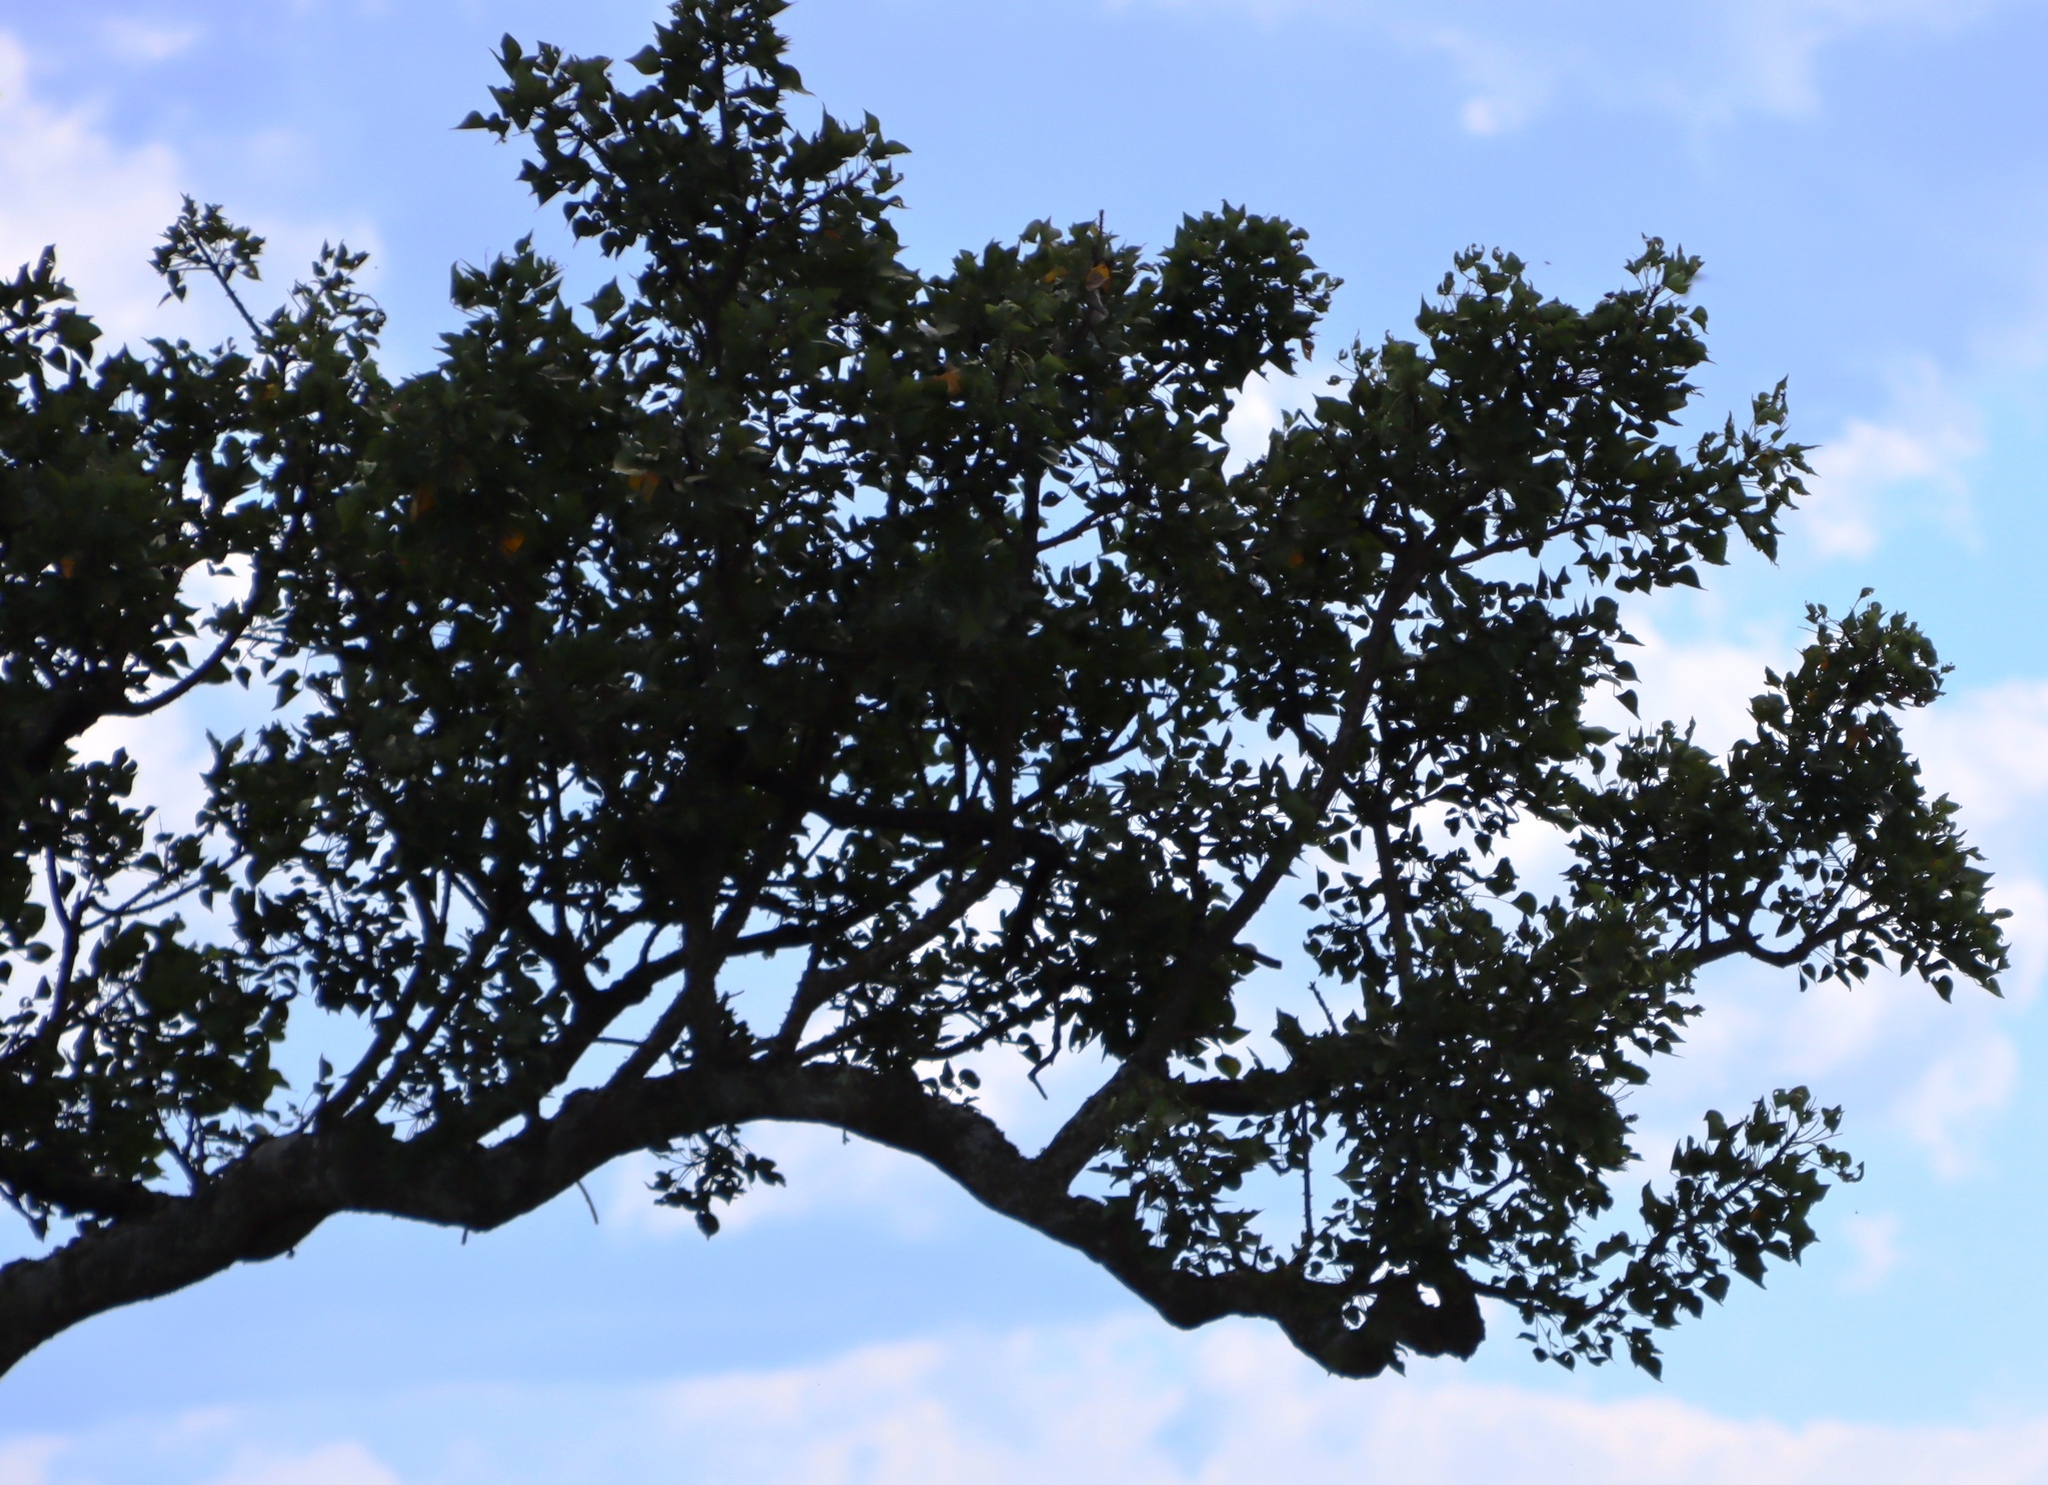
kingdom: Plantae
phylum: Tracheophyta
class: Magnoliopsida
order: Sapindales
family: Anacardiaceae
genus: Sclerocarya
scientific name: Sclerocarya birrea
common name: Marula
